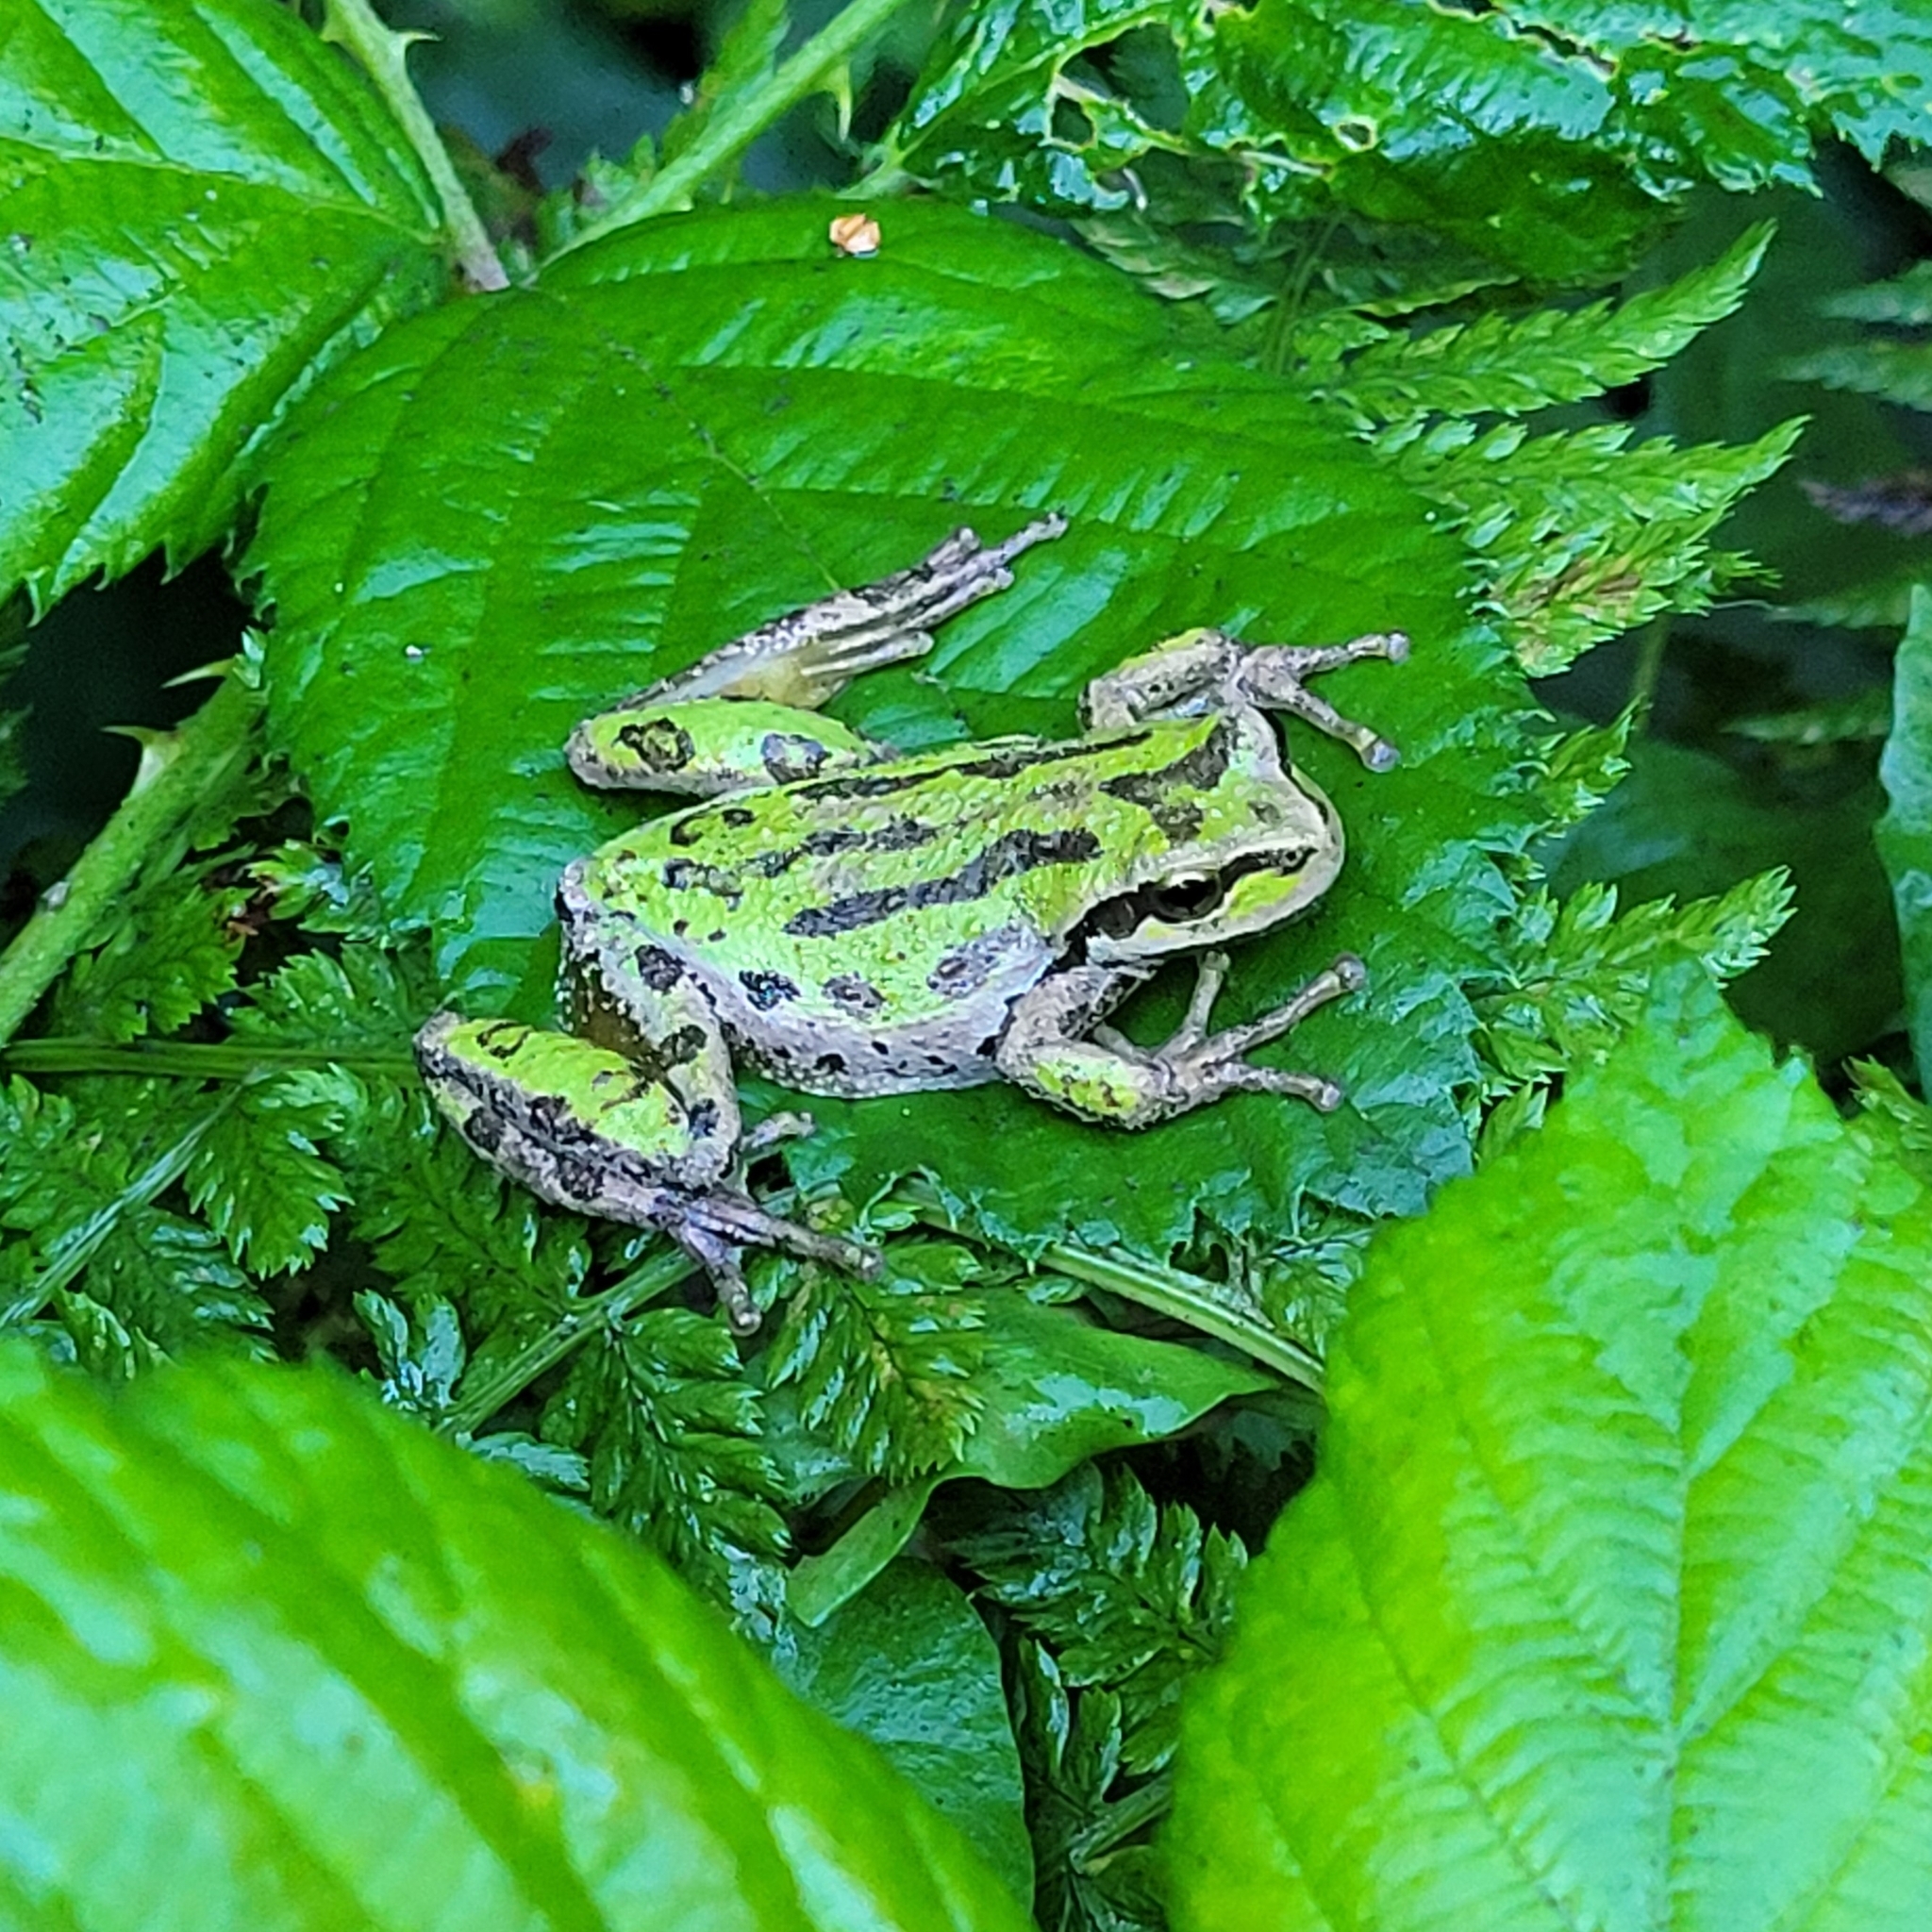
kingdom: Animalia
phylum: Chordata
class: Amphibia
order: Anura
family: Hylidae
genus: Pseudacris
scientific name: Pseudacris regilla
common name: Pacific chorus frog
